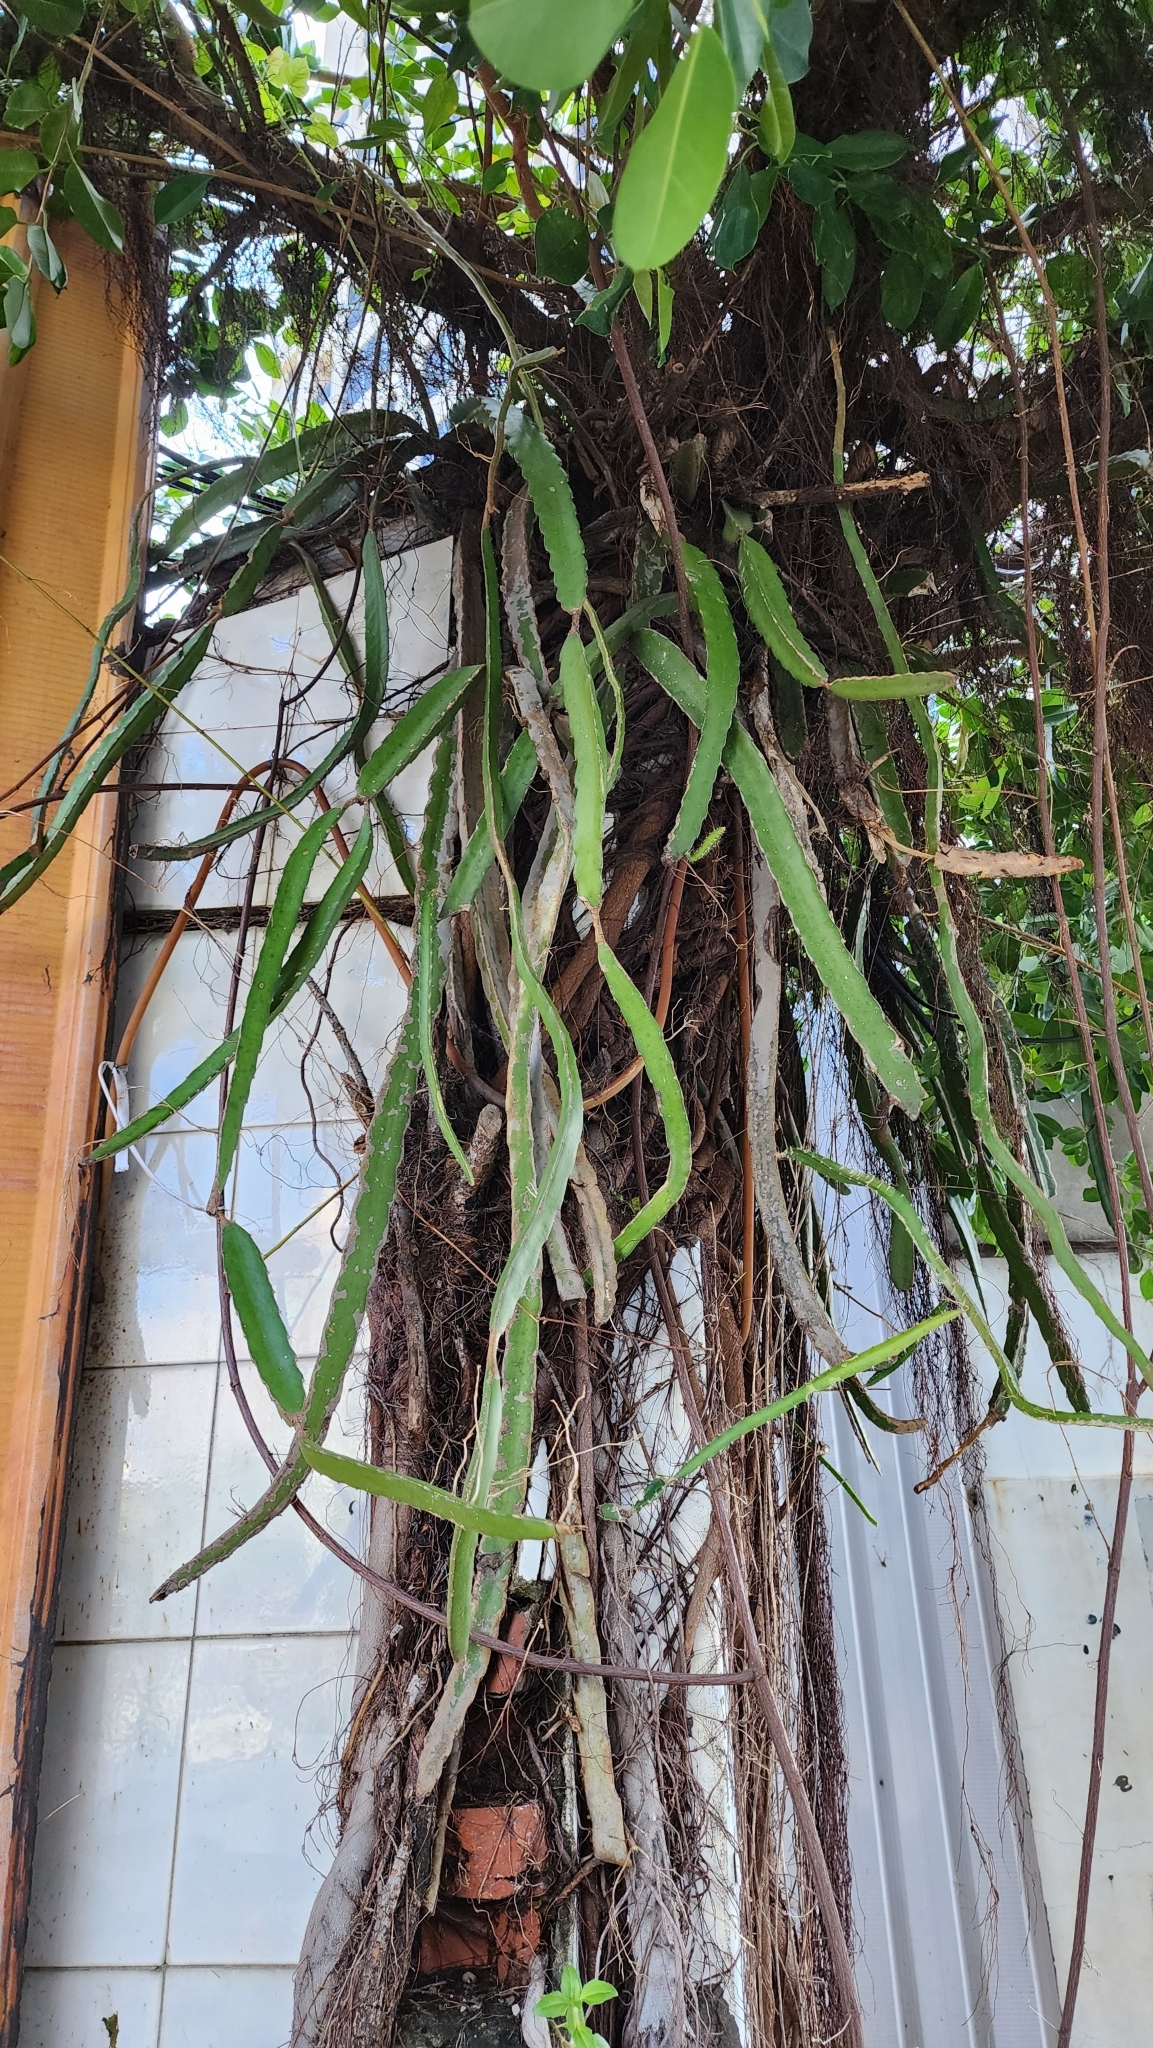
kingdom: Plantae
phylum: Tracheophyta
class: Magnoliopsida
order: Caryophyllales
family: Cactaceae
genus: Selenicereus
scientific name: Selenicereus undatus
